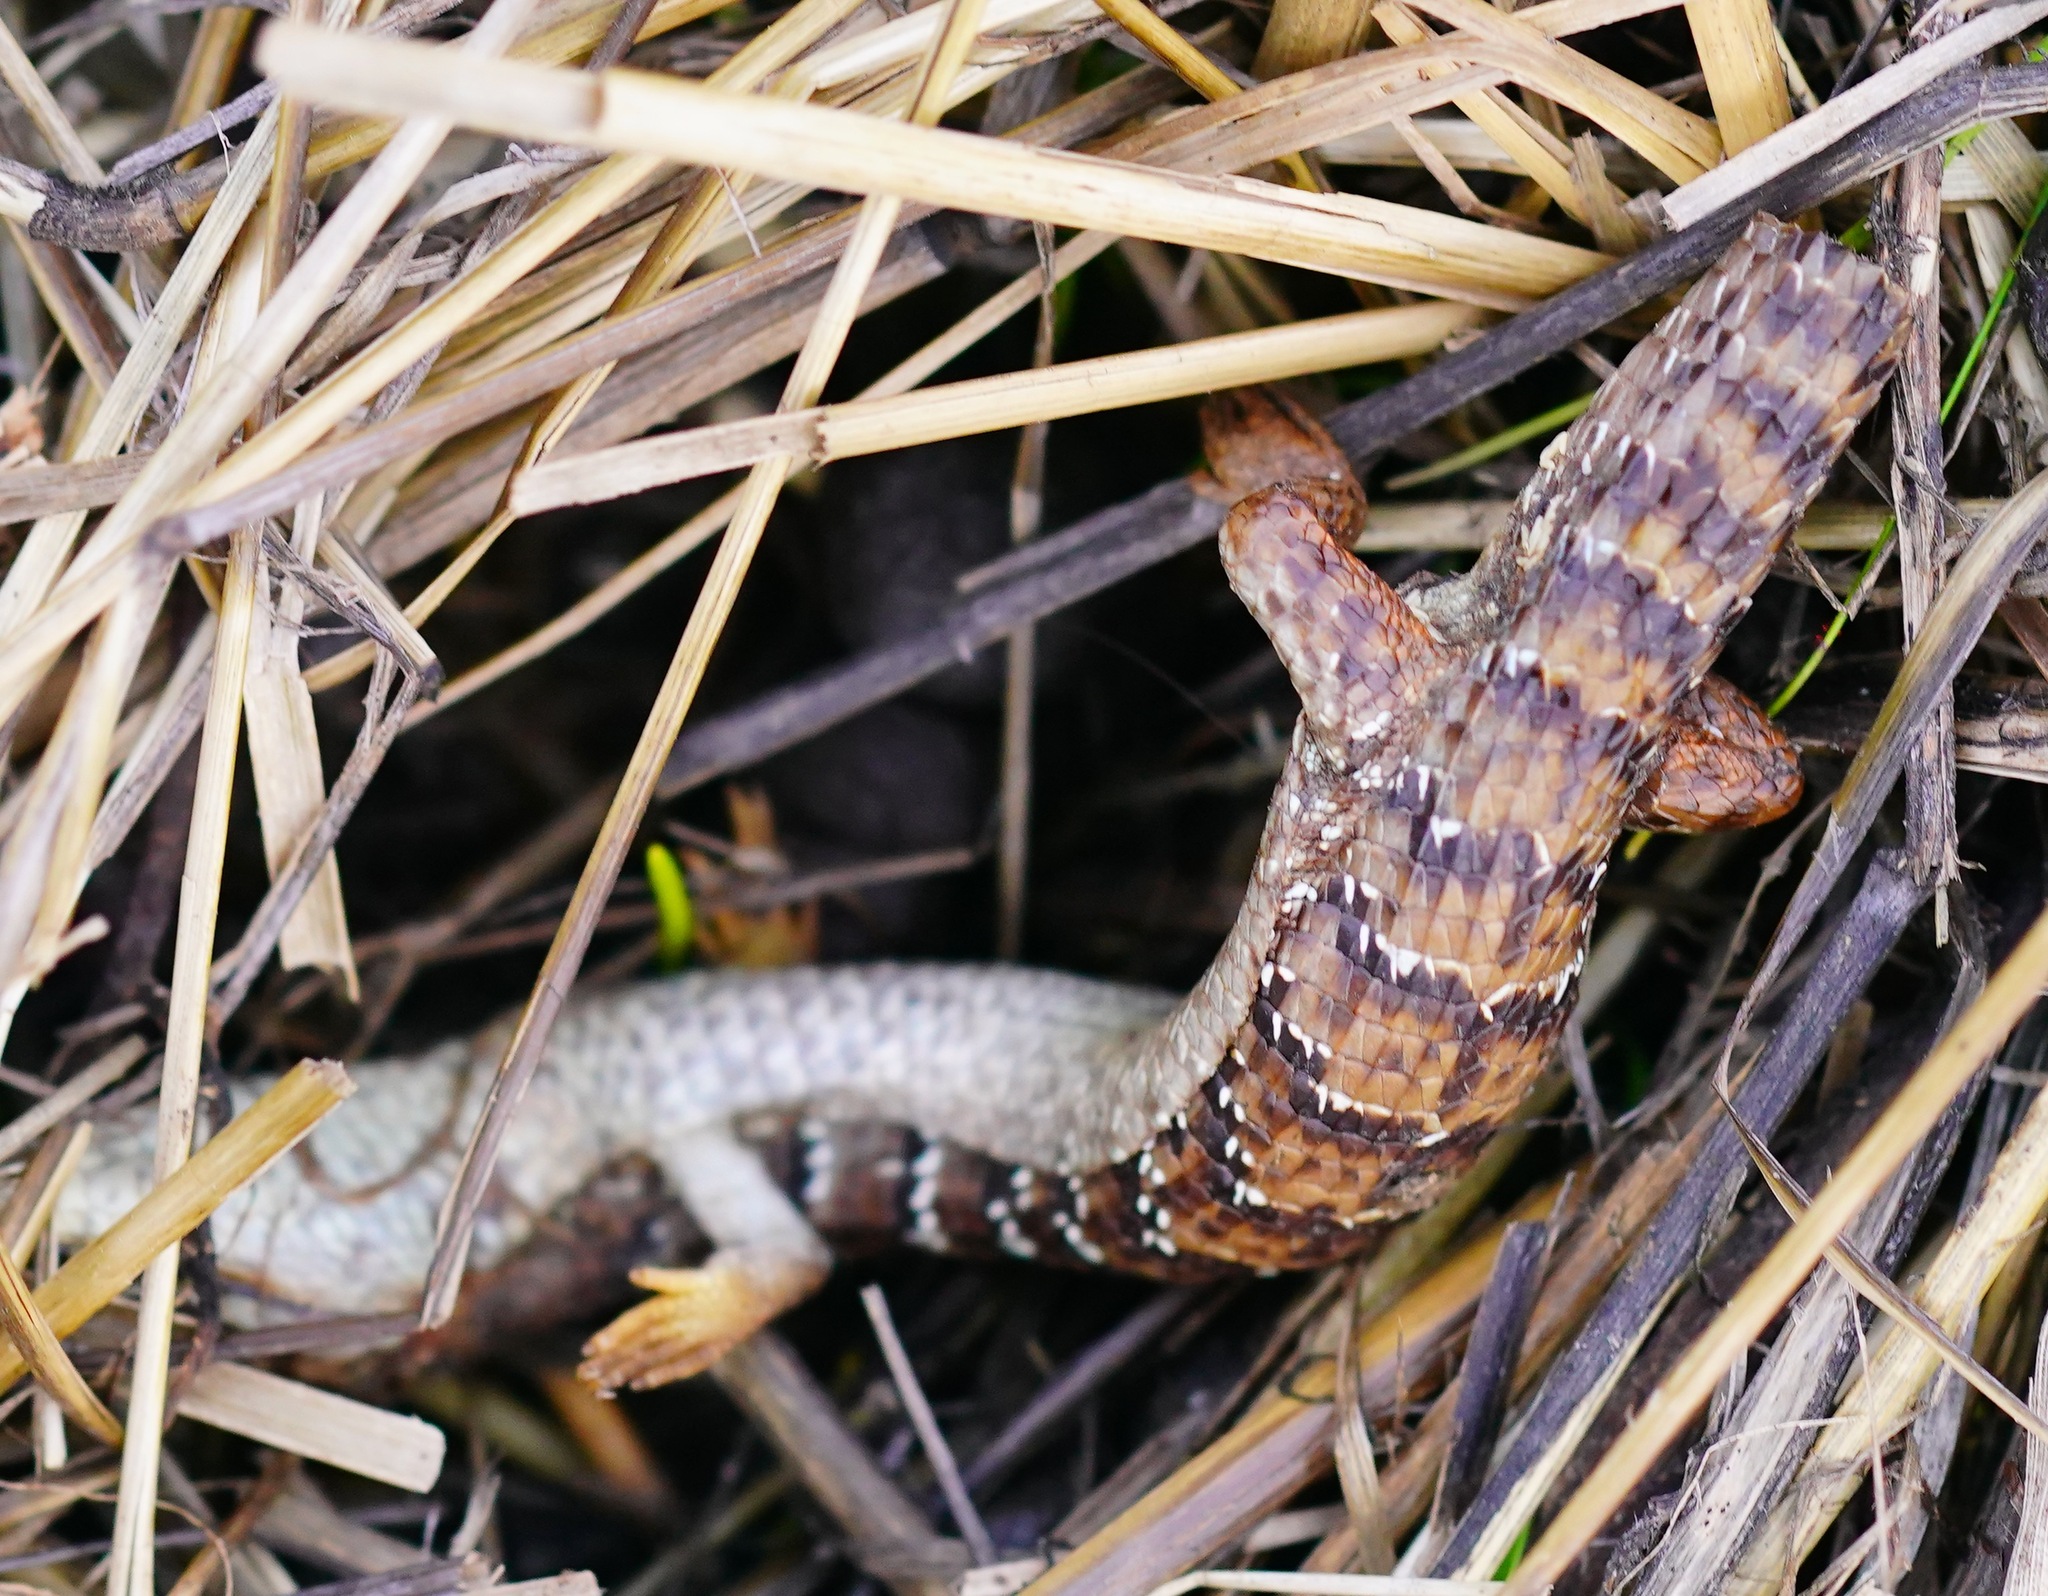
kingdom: Animalia
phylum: Chordata
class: Squamata
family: Anguidae
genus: Elgaria
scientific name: Elgaria multicarinata
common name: Southern alligator lizard
